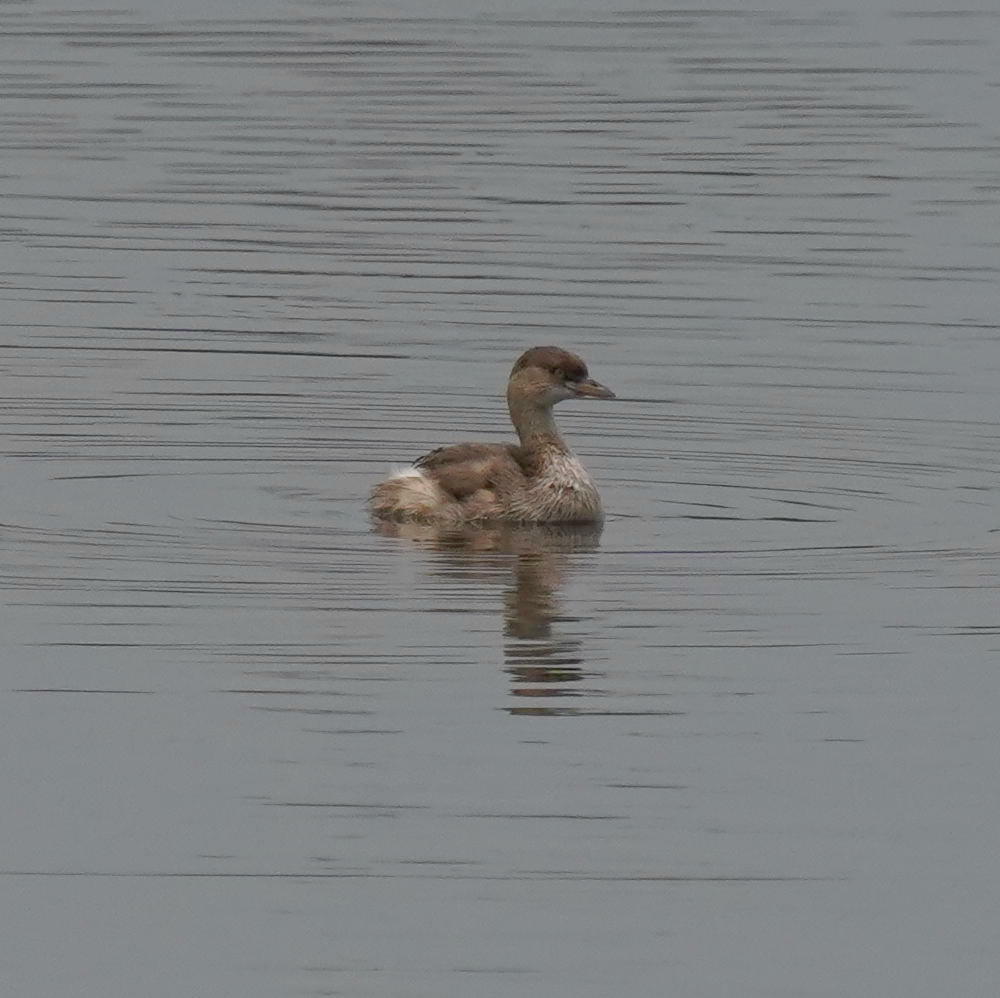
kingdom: Animalia
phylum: Chordata
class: Aves
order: Podicipediformes
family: Podicipedidae
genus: Tachybaptus
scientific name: Tachybaptus ruficollis
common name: Little grebe
